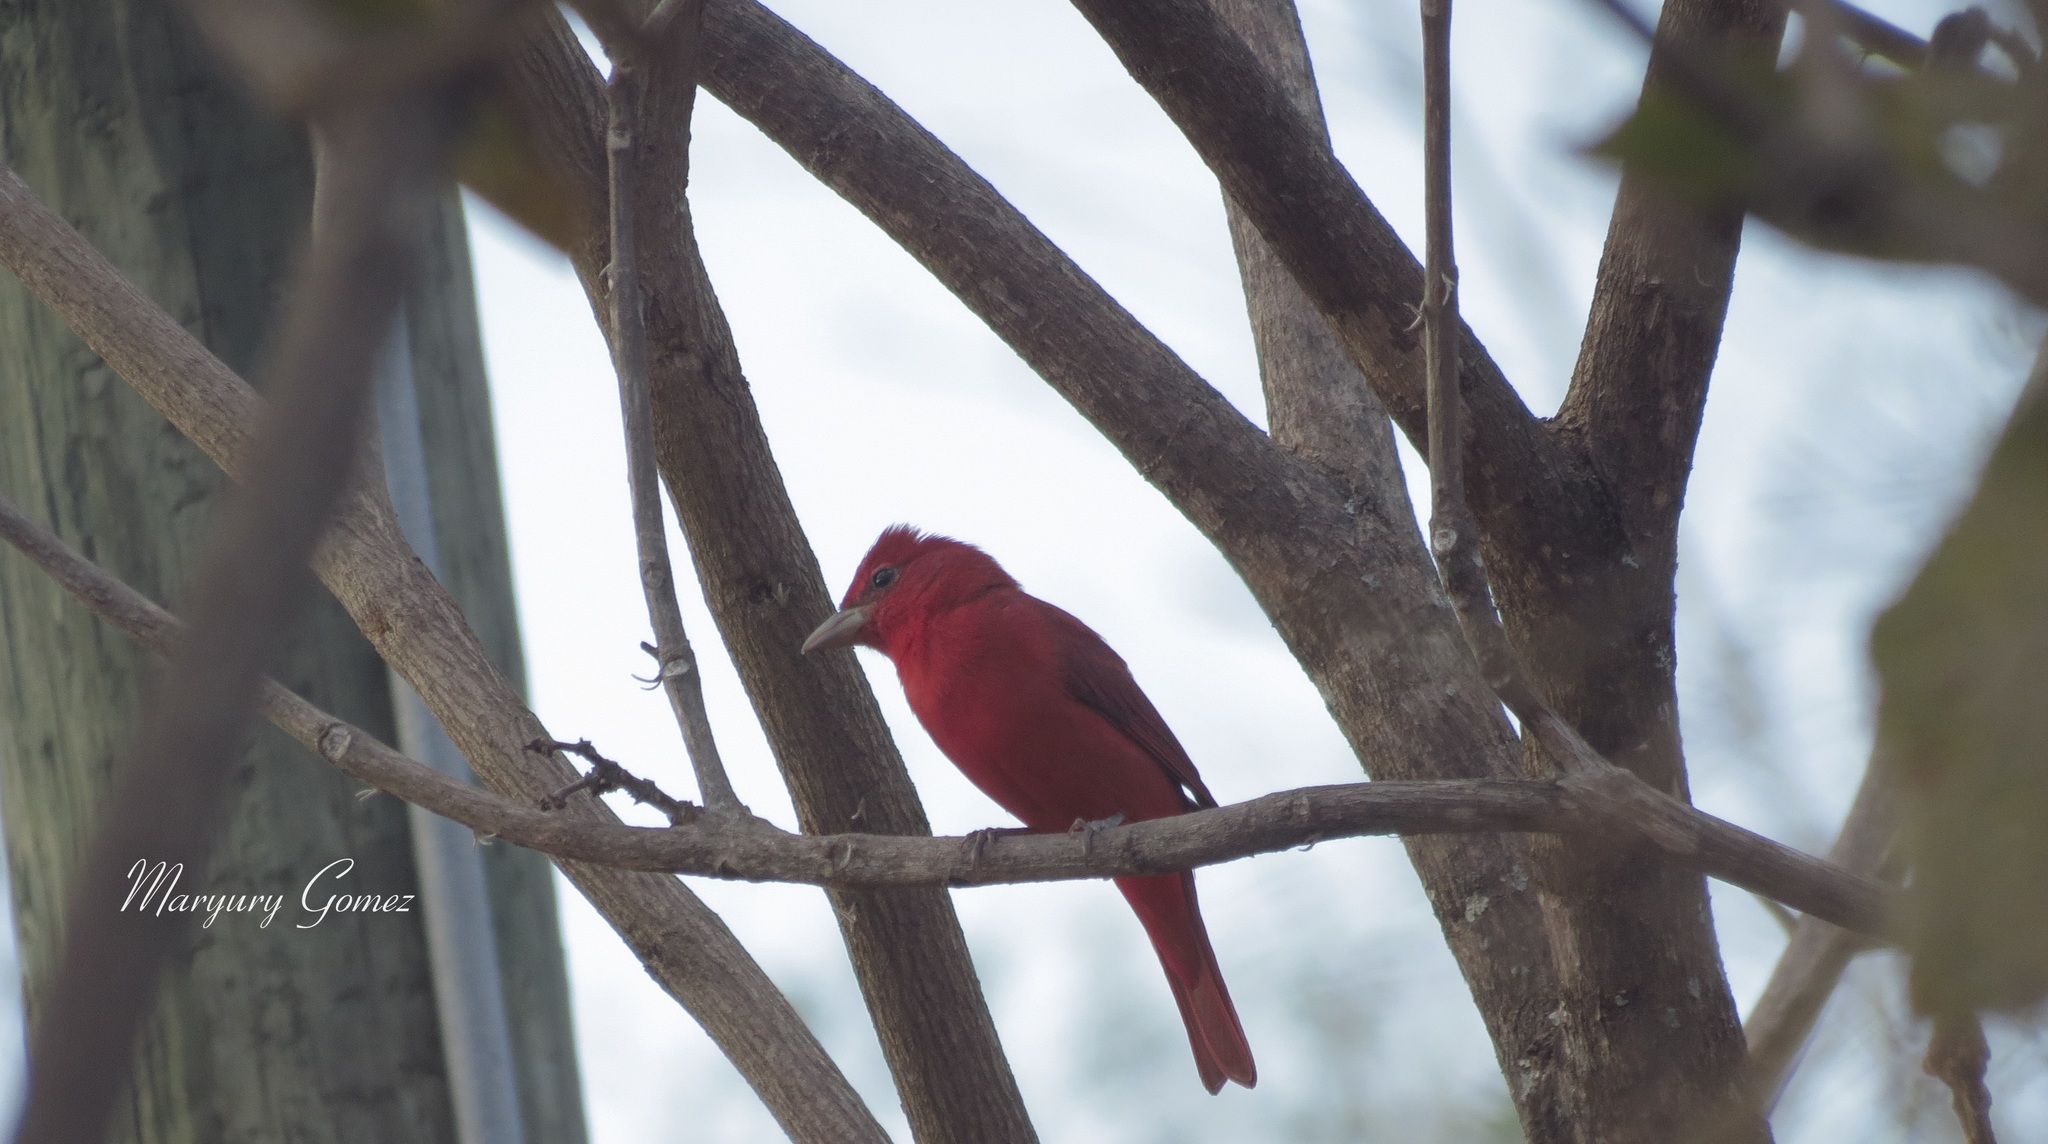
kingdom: Animalia
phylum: Chordata
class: Aves
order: Passeriformes
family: Cardinalidae
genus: Piranga
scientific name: Piranga rubra
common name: Summer tanager
